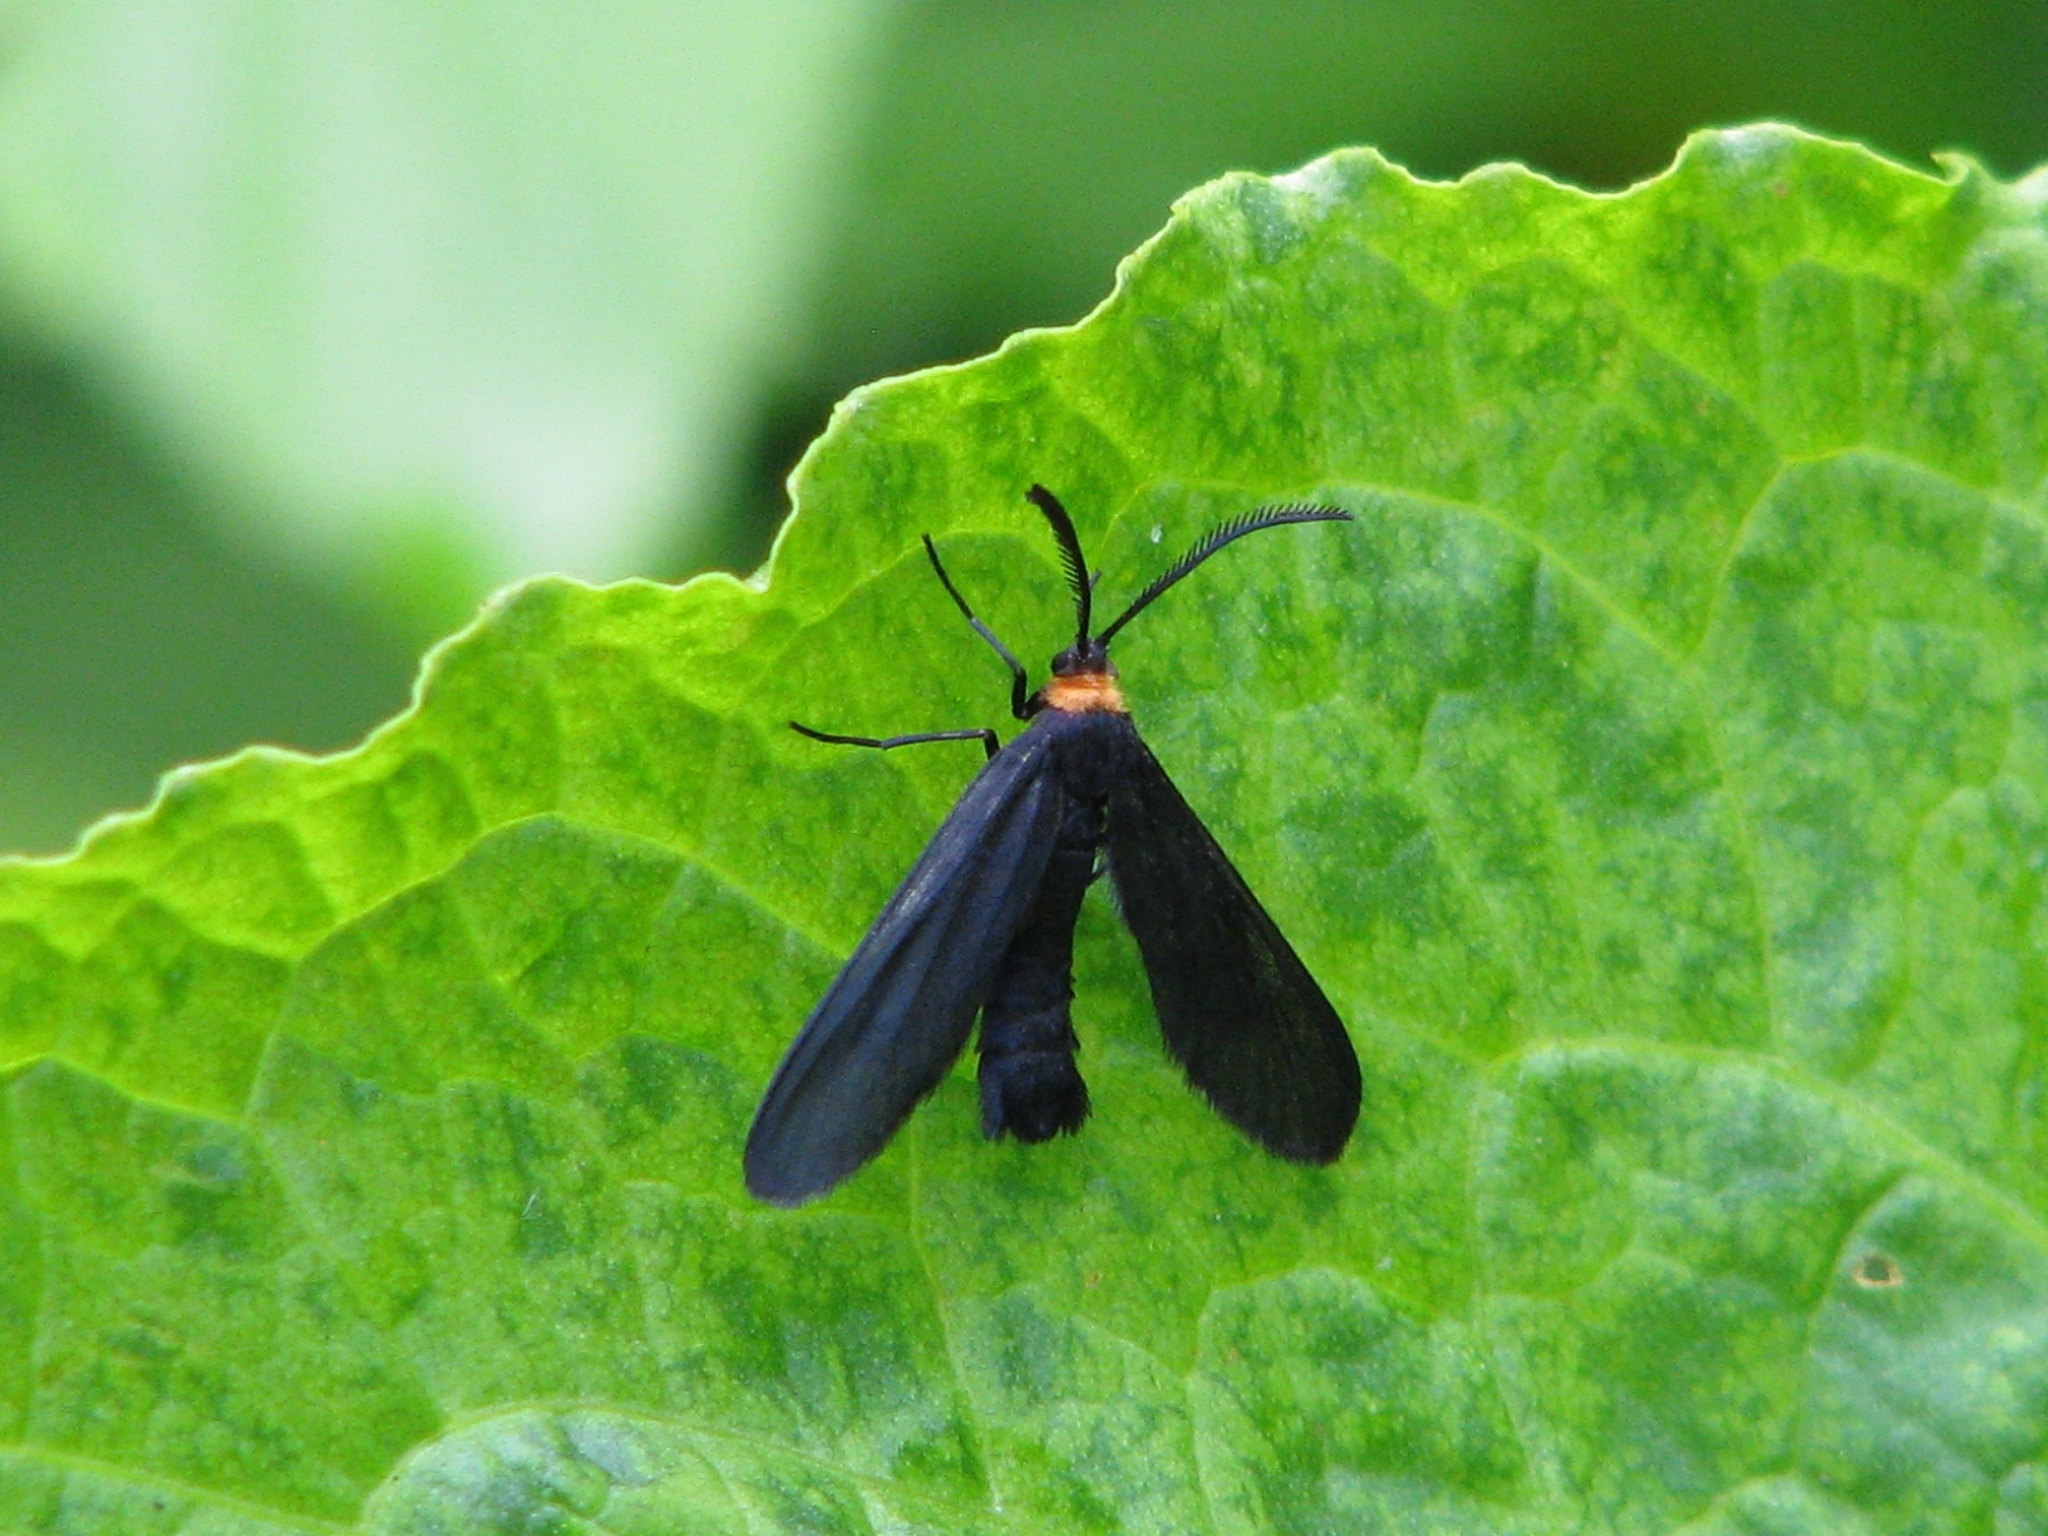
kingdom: Animalia
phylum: Arthropoda
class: Insecta
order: Lepidoptera
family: Zygaenidae
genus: Harrisina
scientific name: Harrisina americana
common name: Grapeleaf skeletonizer moth
